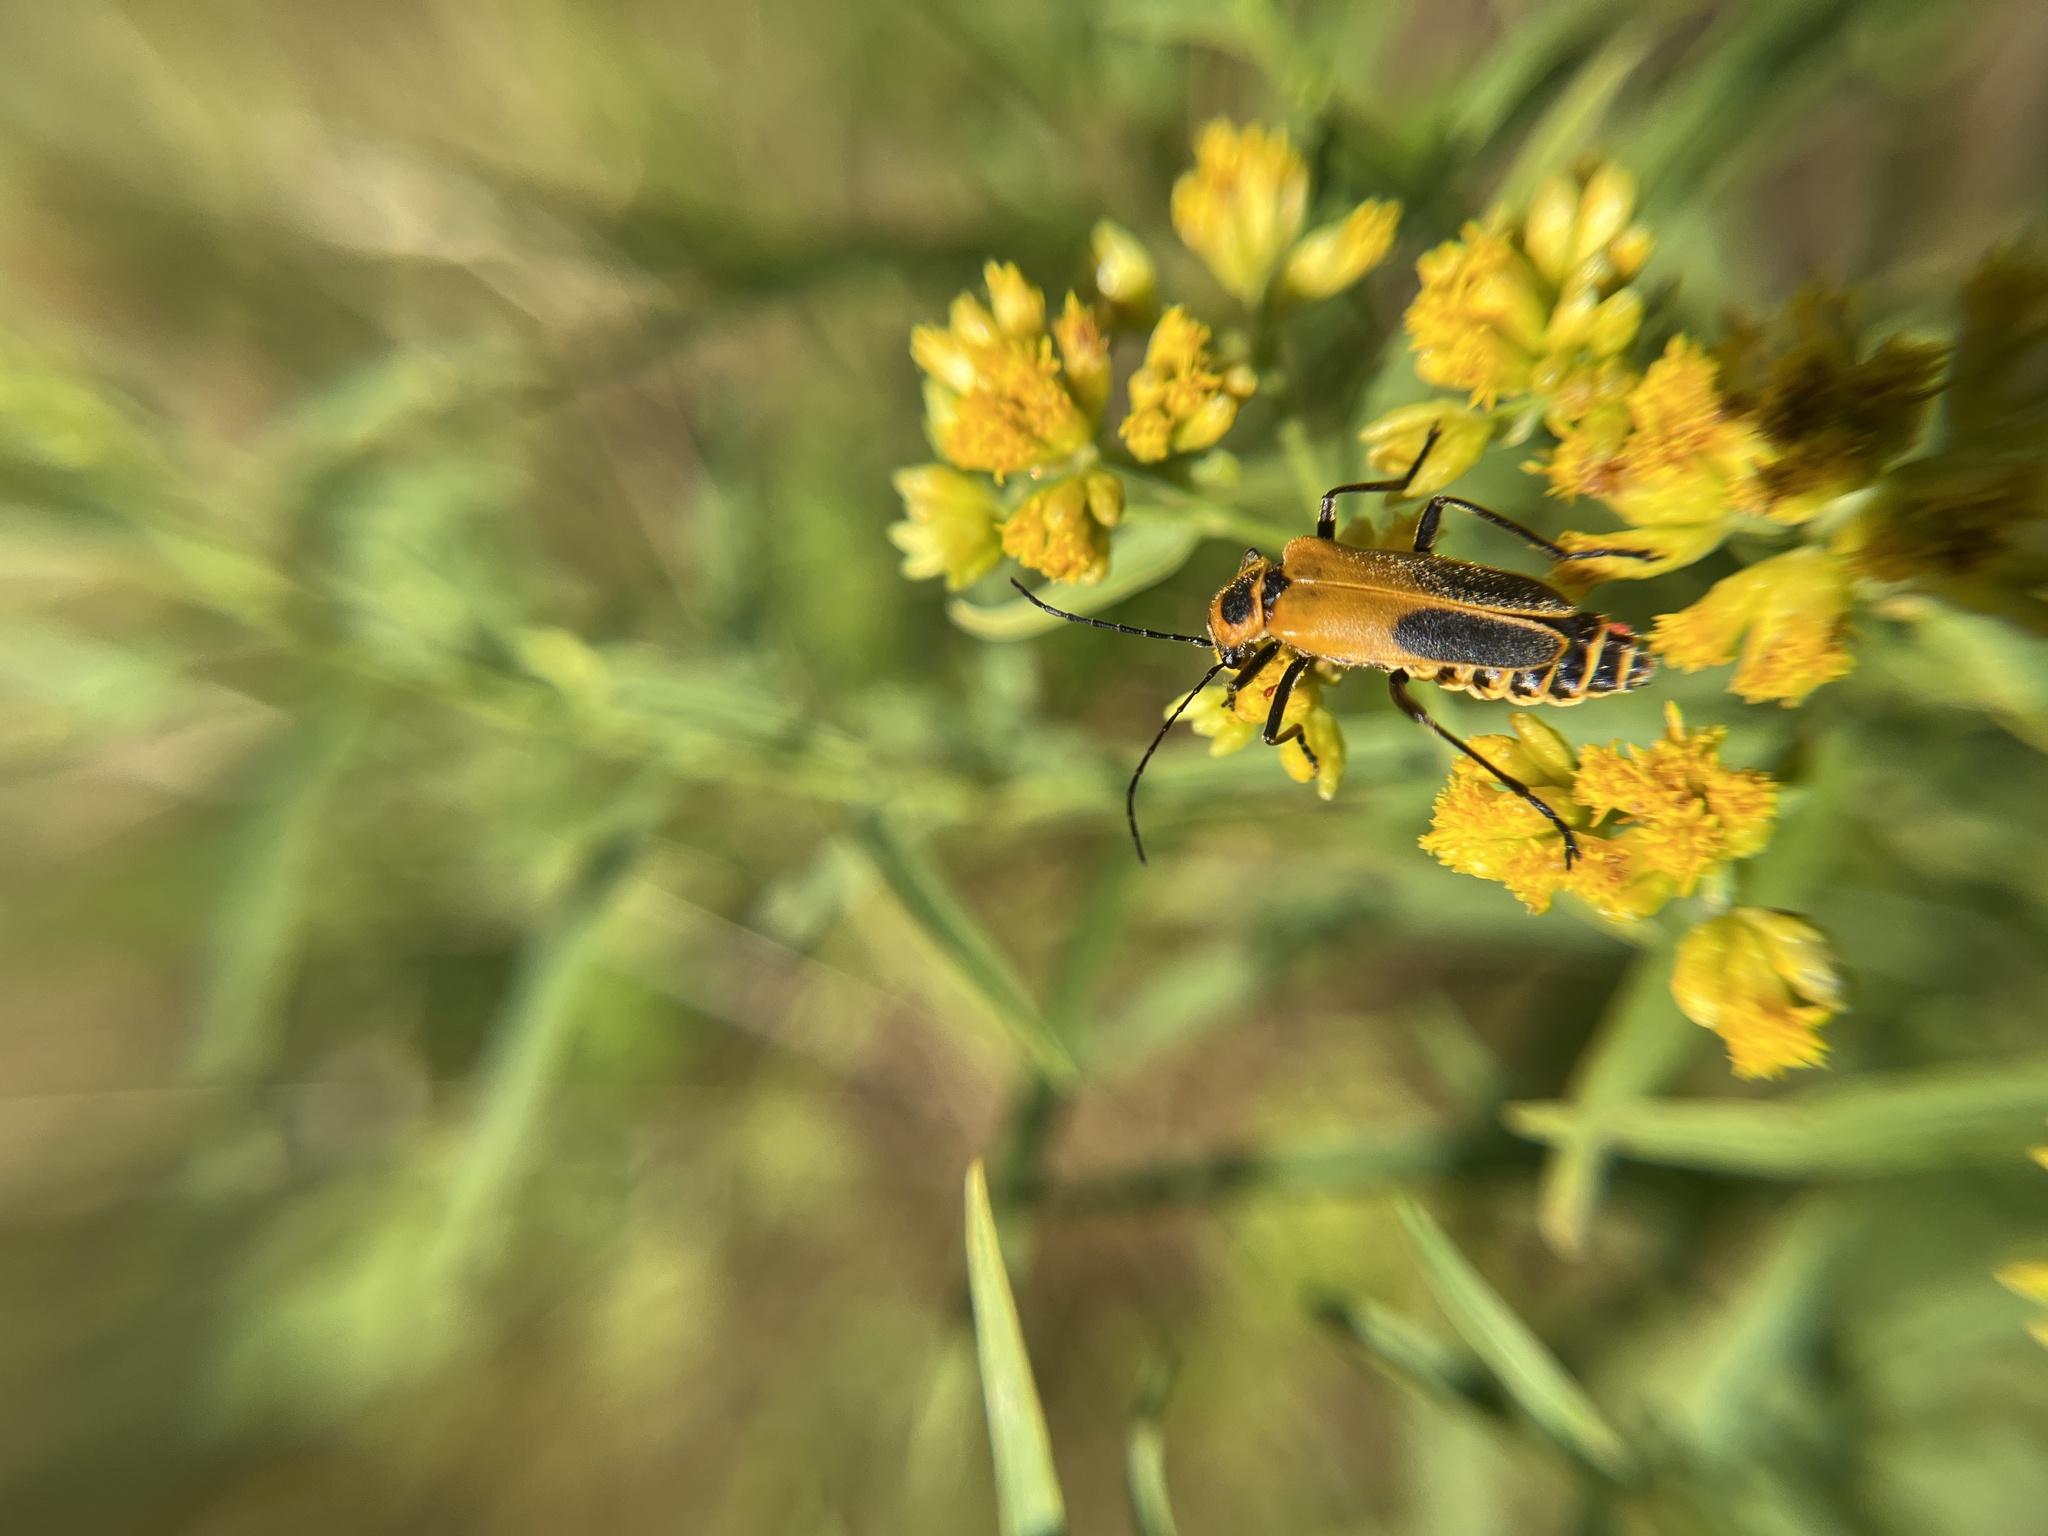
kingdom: Animalia
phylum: Arthropoda
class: Insecta
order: Coleoptera
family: Cantharidae
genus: Chauliognathus
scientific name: Chauliognathus pensylvanicus
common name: Goldenrod soldier beetle
